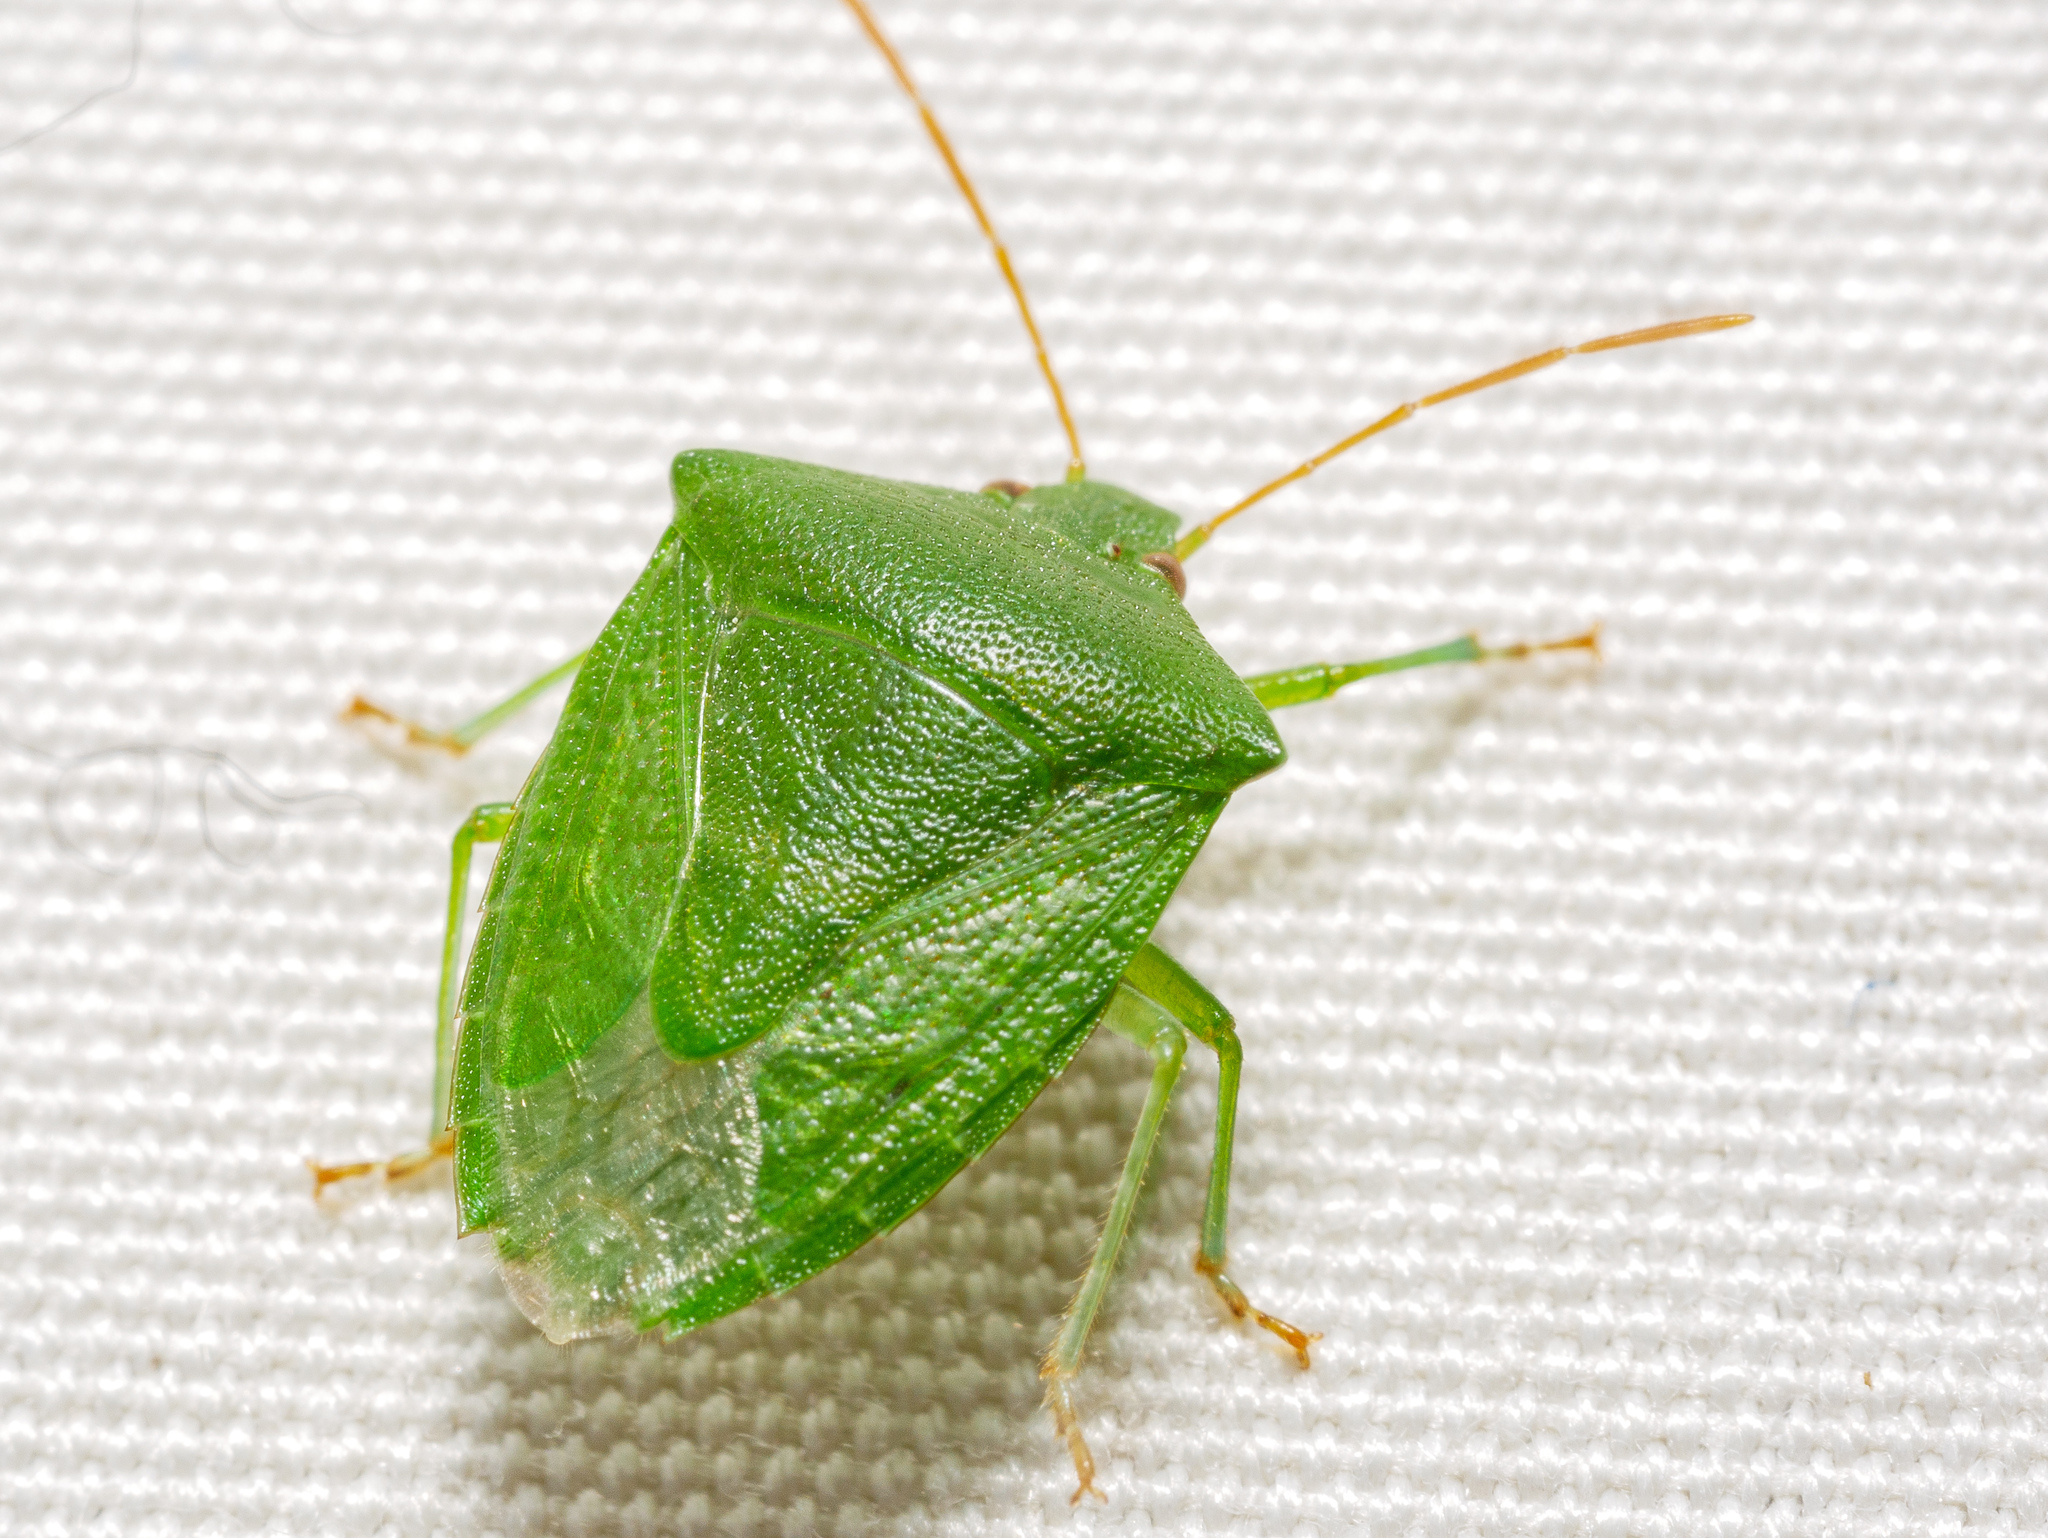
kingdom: Animalia
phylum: Arthropoda
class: Insecta
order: Hemiptera
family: Pentatomidae
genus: Cuspicona
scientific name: Cuspicona simplex
